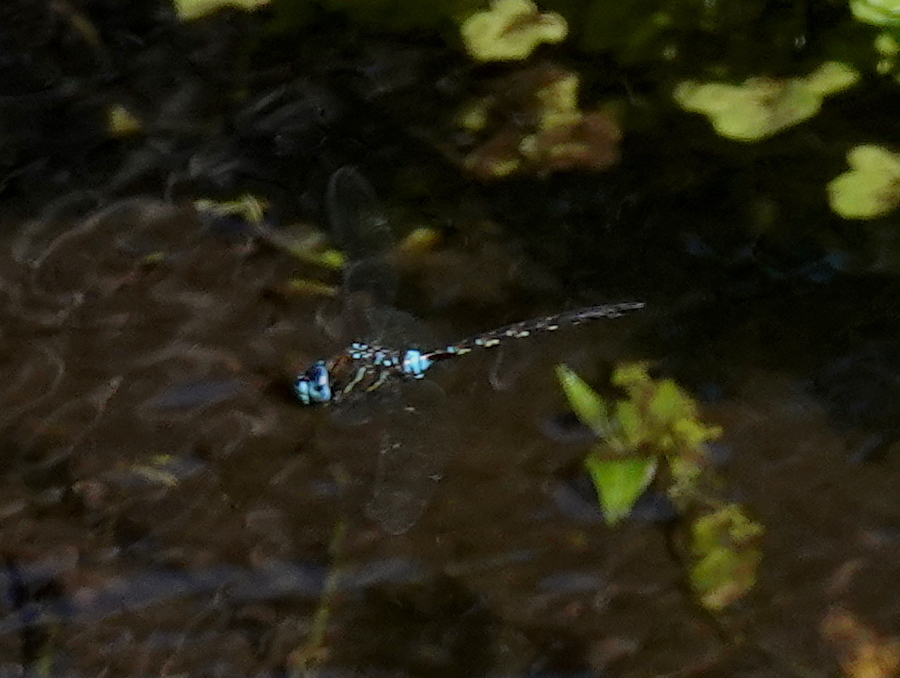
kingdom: Animalia
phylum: Arthropoda
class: Insecta
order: Odonata
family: Aeshnidae
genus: Rhionaeschna
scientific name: Rhionaeschna jalapensis
